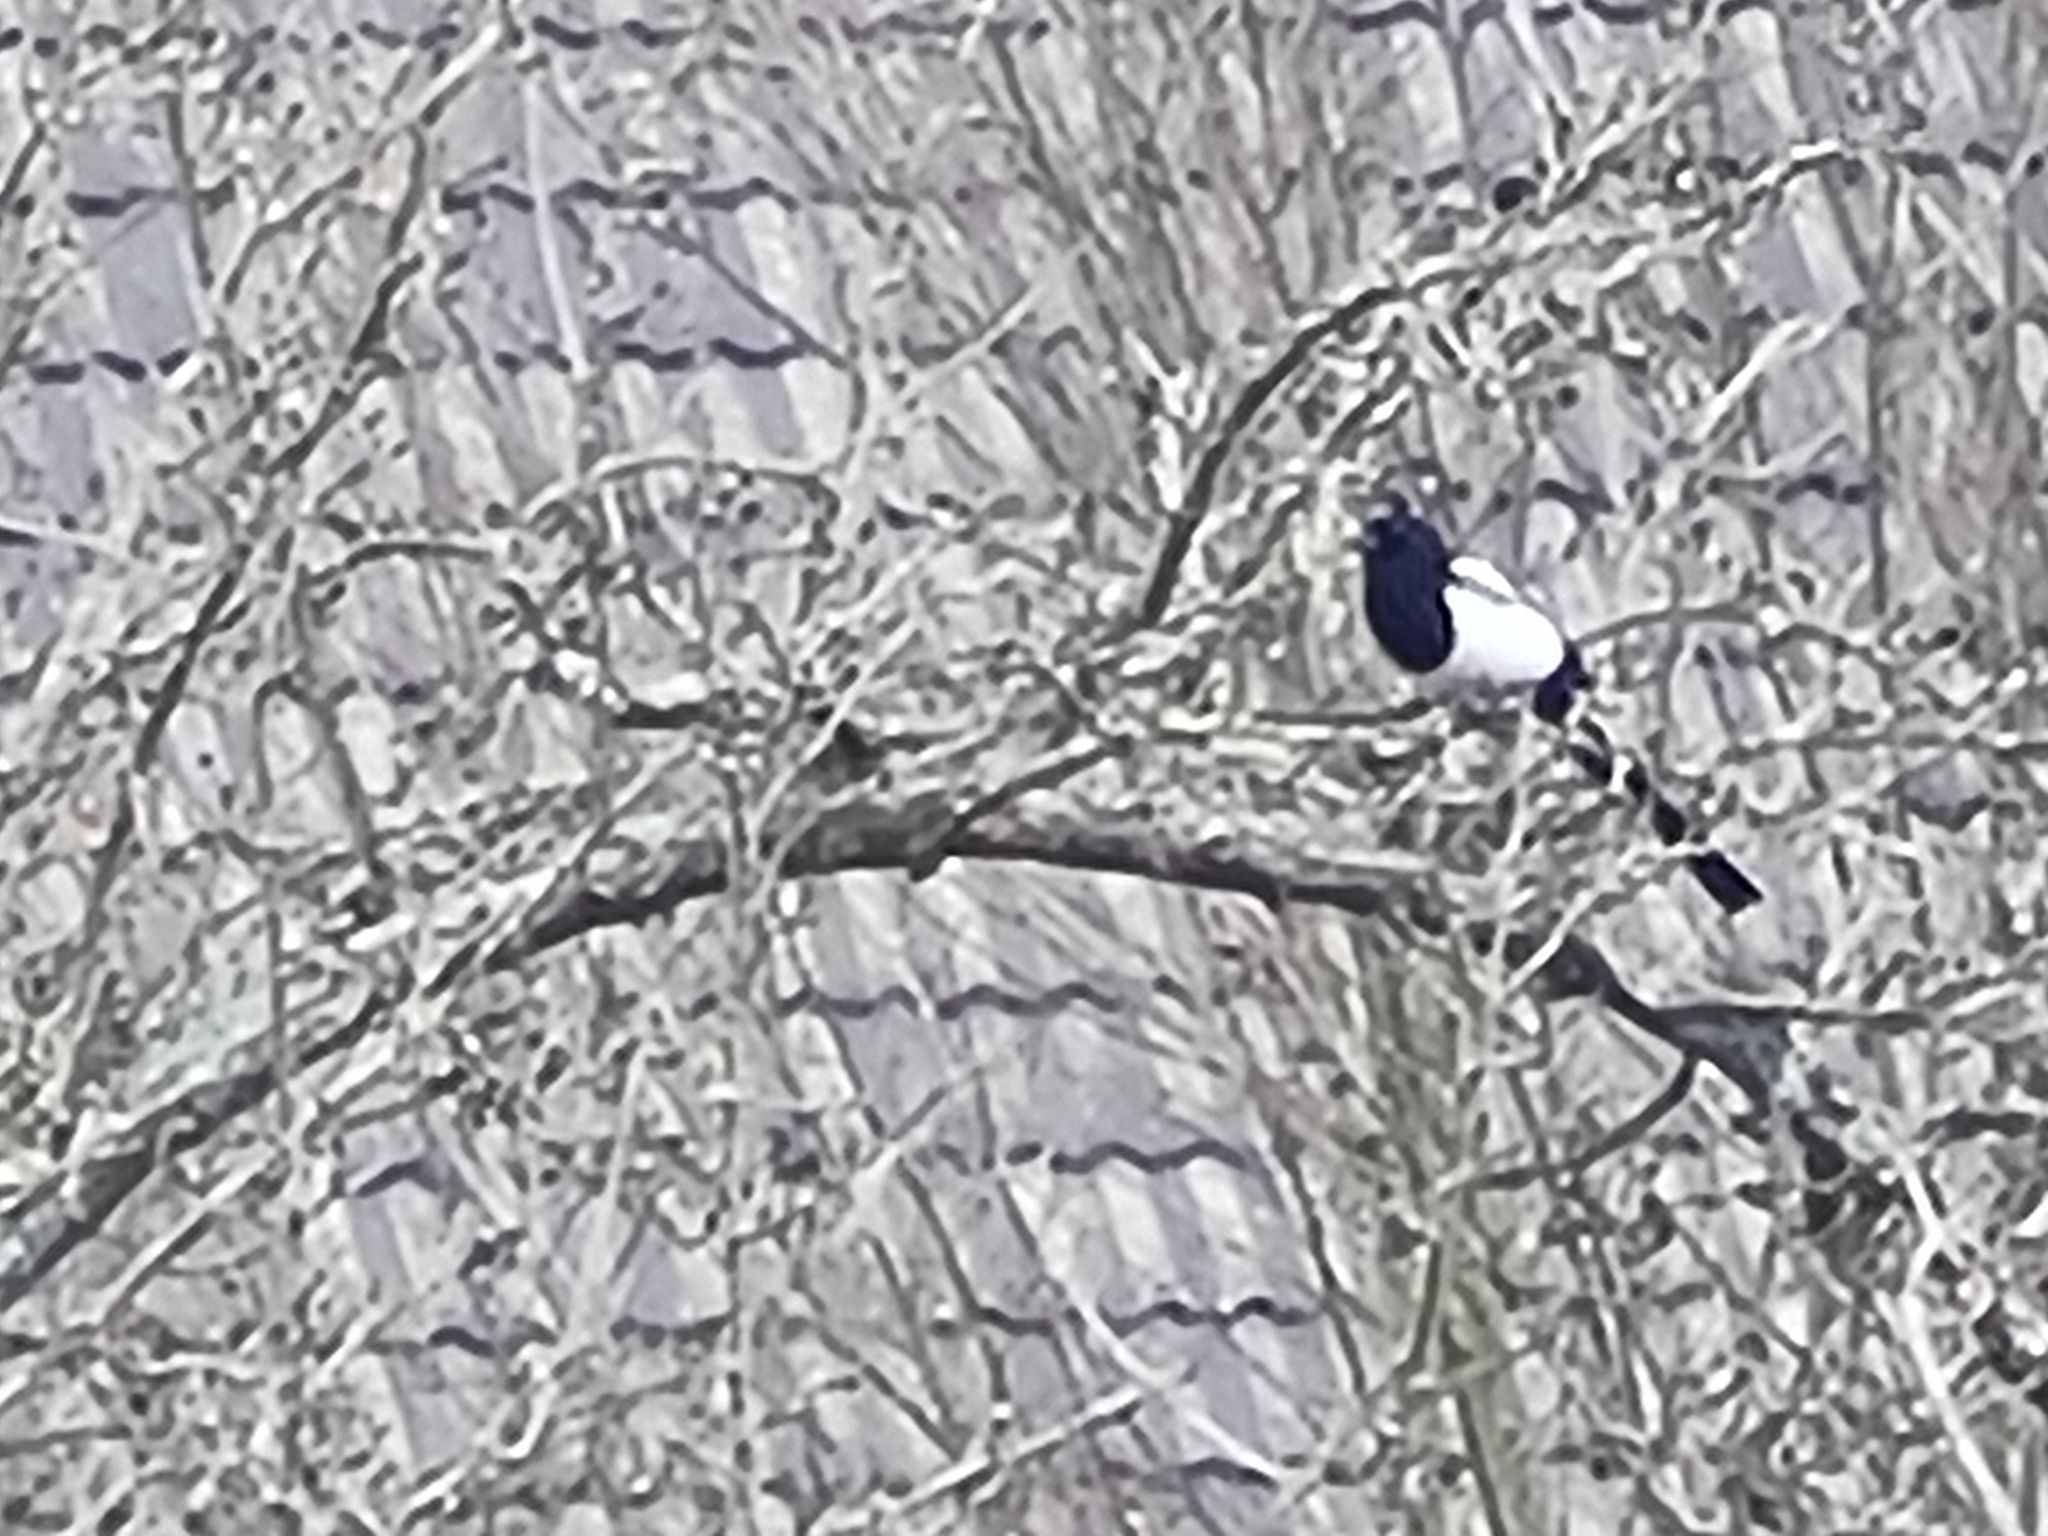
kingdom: Animalia
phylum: Chordata
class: Aves
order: Passeriformes
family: Corvidae
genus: Pica
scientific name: Pica pica
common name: Eurasian magpie
